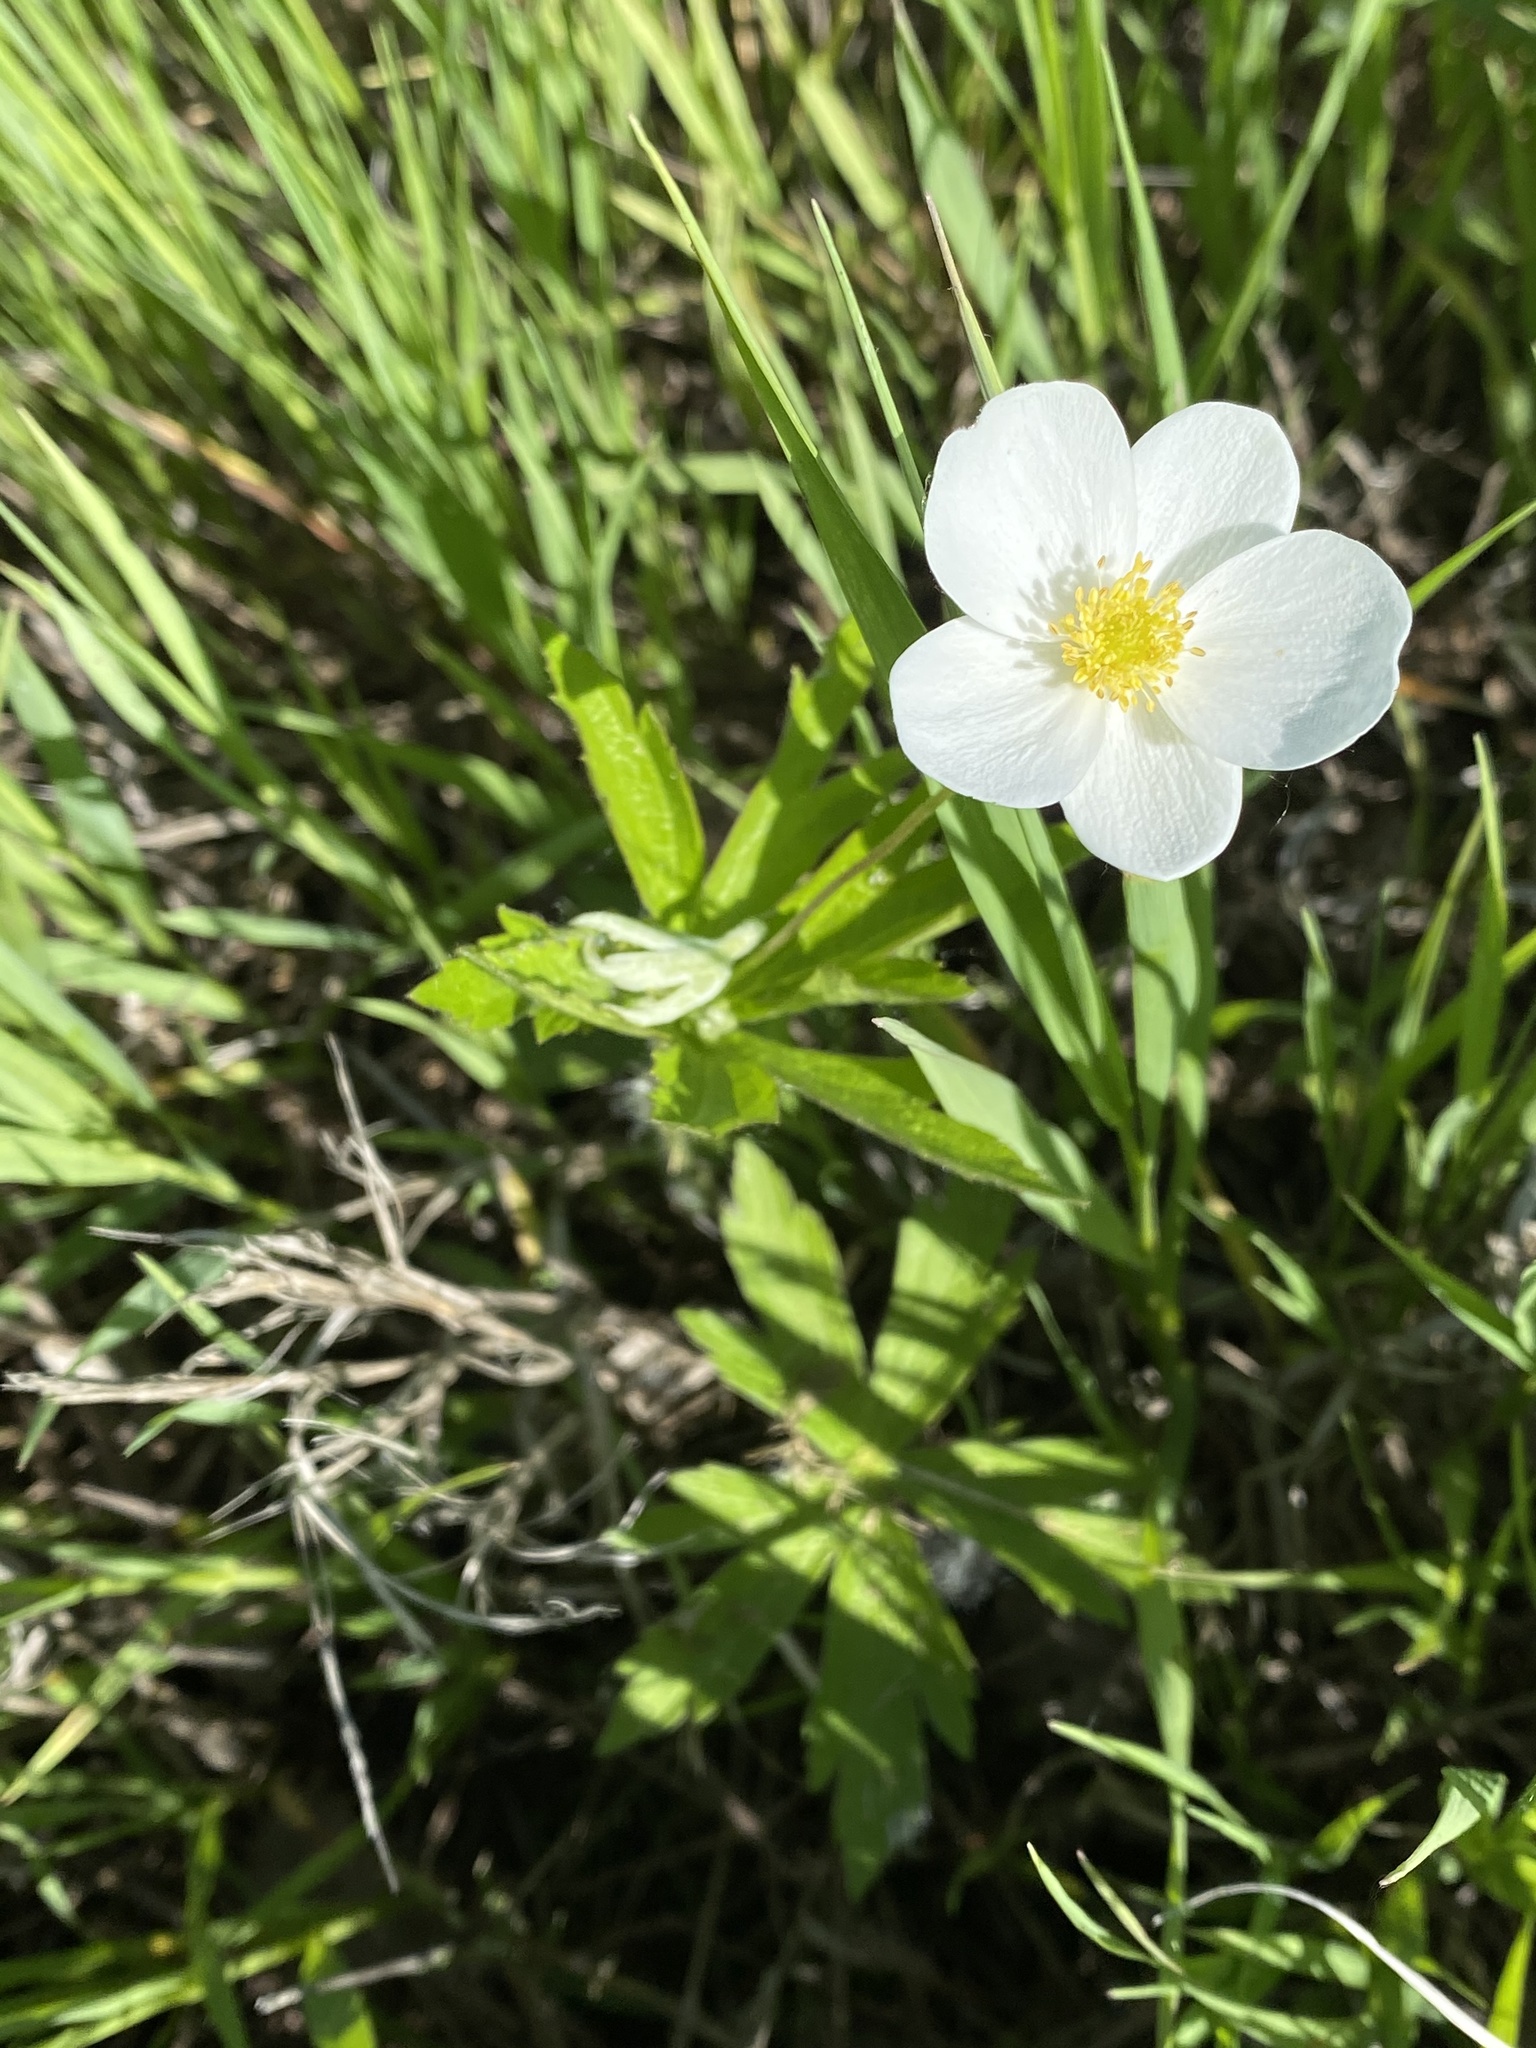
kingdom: Plantae
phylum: Tracheophyta
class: Magnoliopsida
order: Ranunculales
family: Ranunculaceae
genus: Anemonastrum
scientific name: Anemonastrum canadense
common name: Canada anemone
